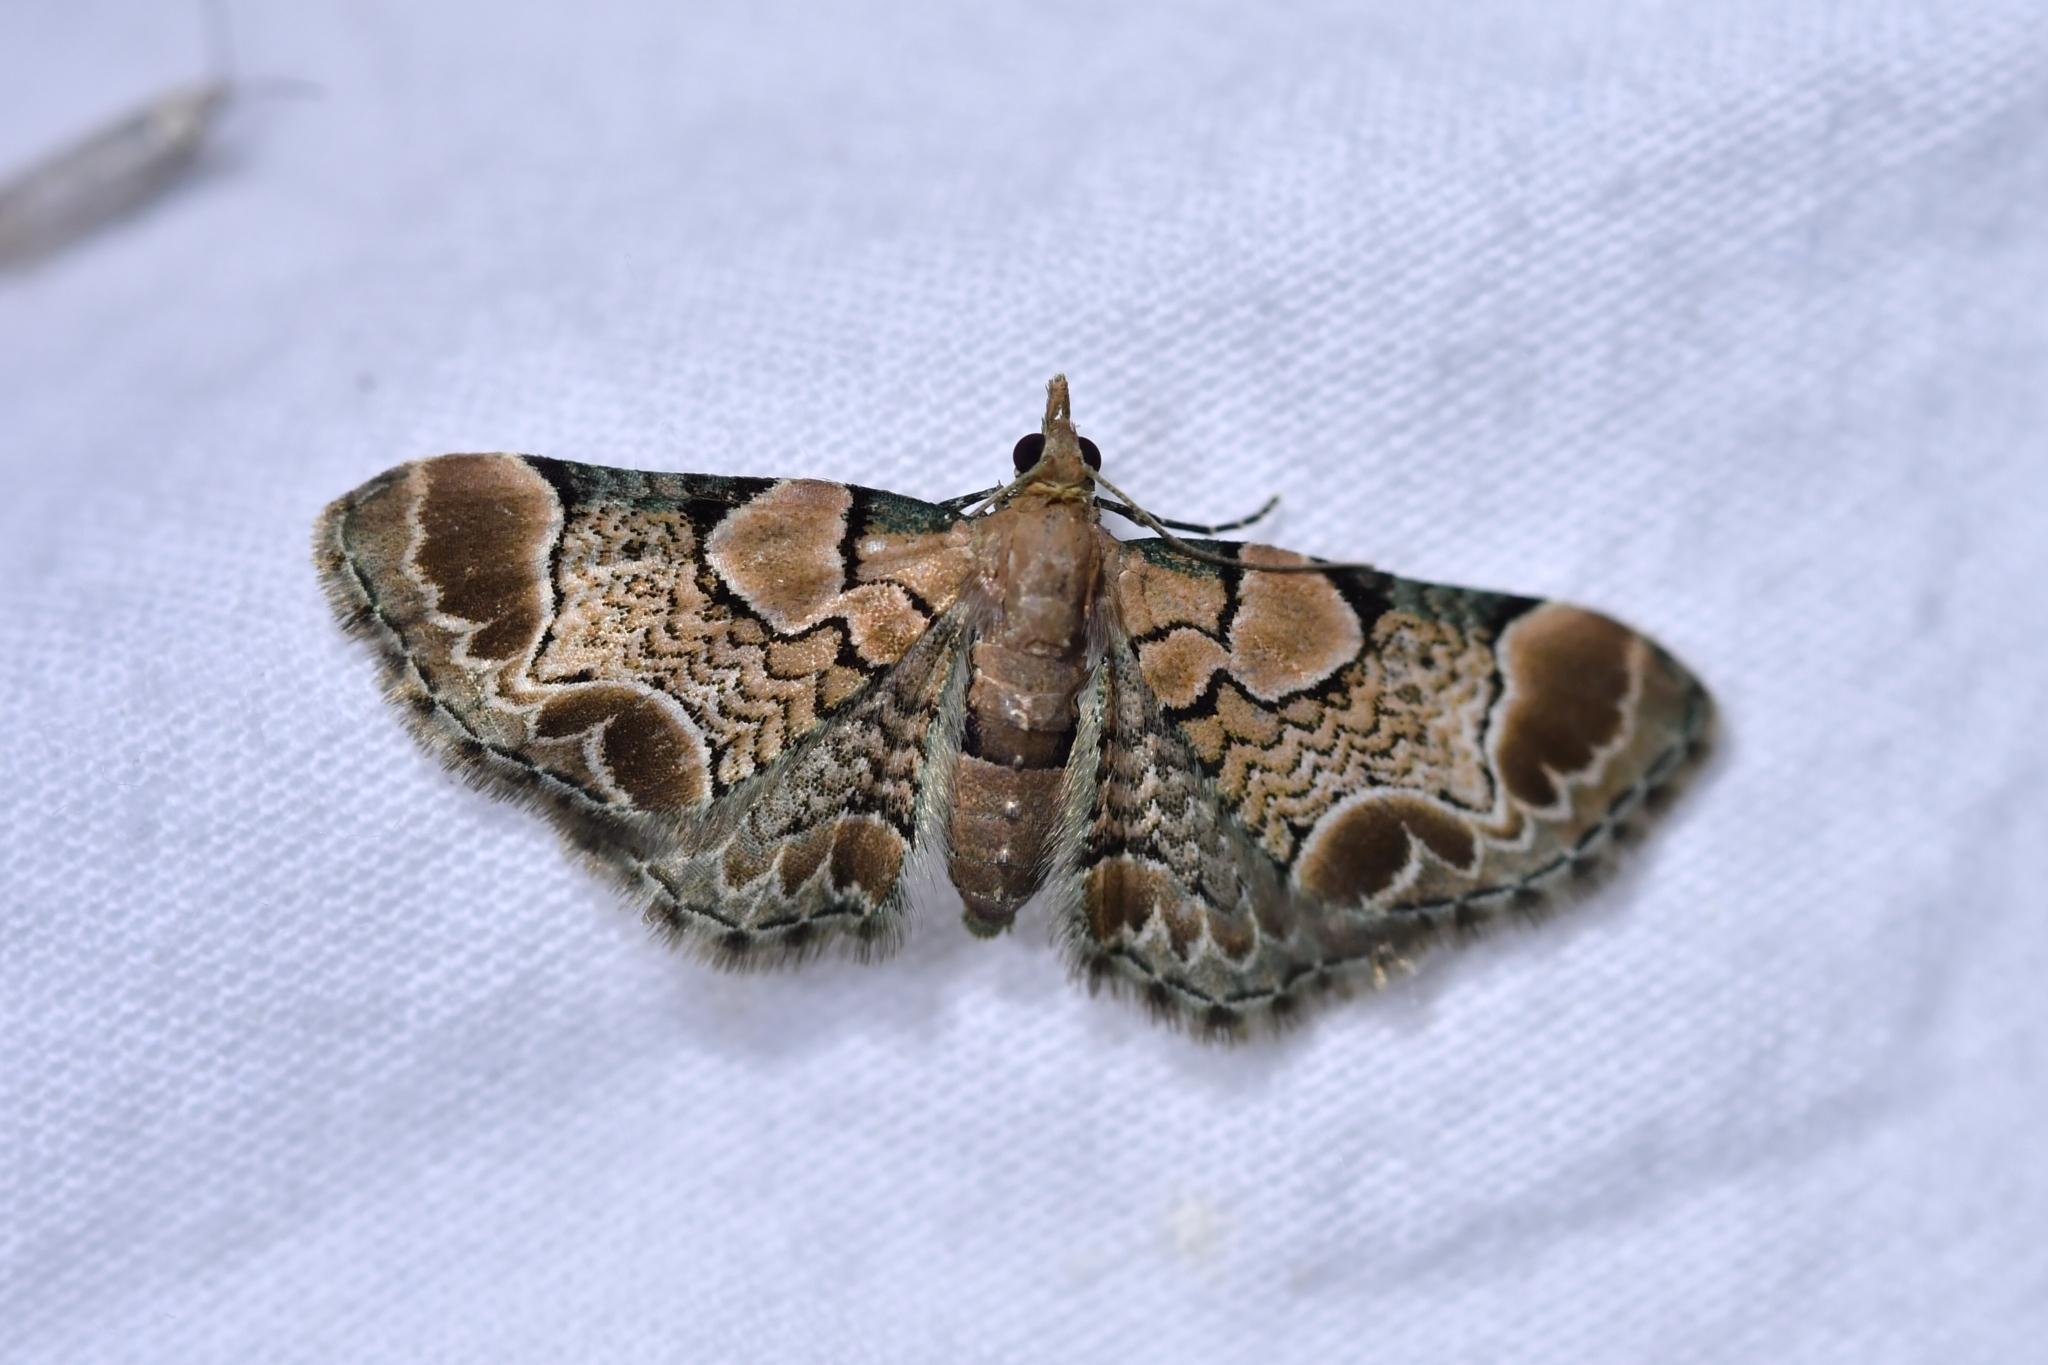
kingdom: Animalia
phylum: Arthropoda
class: Insecta
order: Lepidoptera
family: Geometridae
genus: Chloroclystis
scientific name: Chloroclystis
